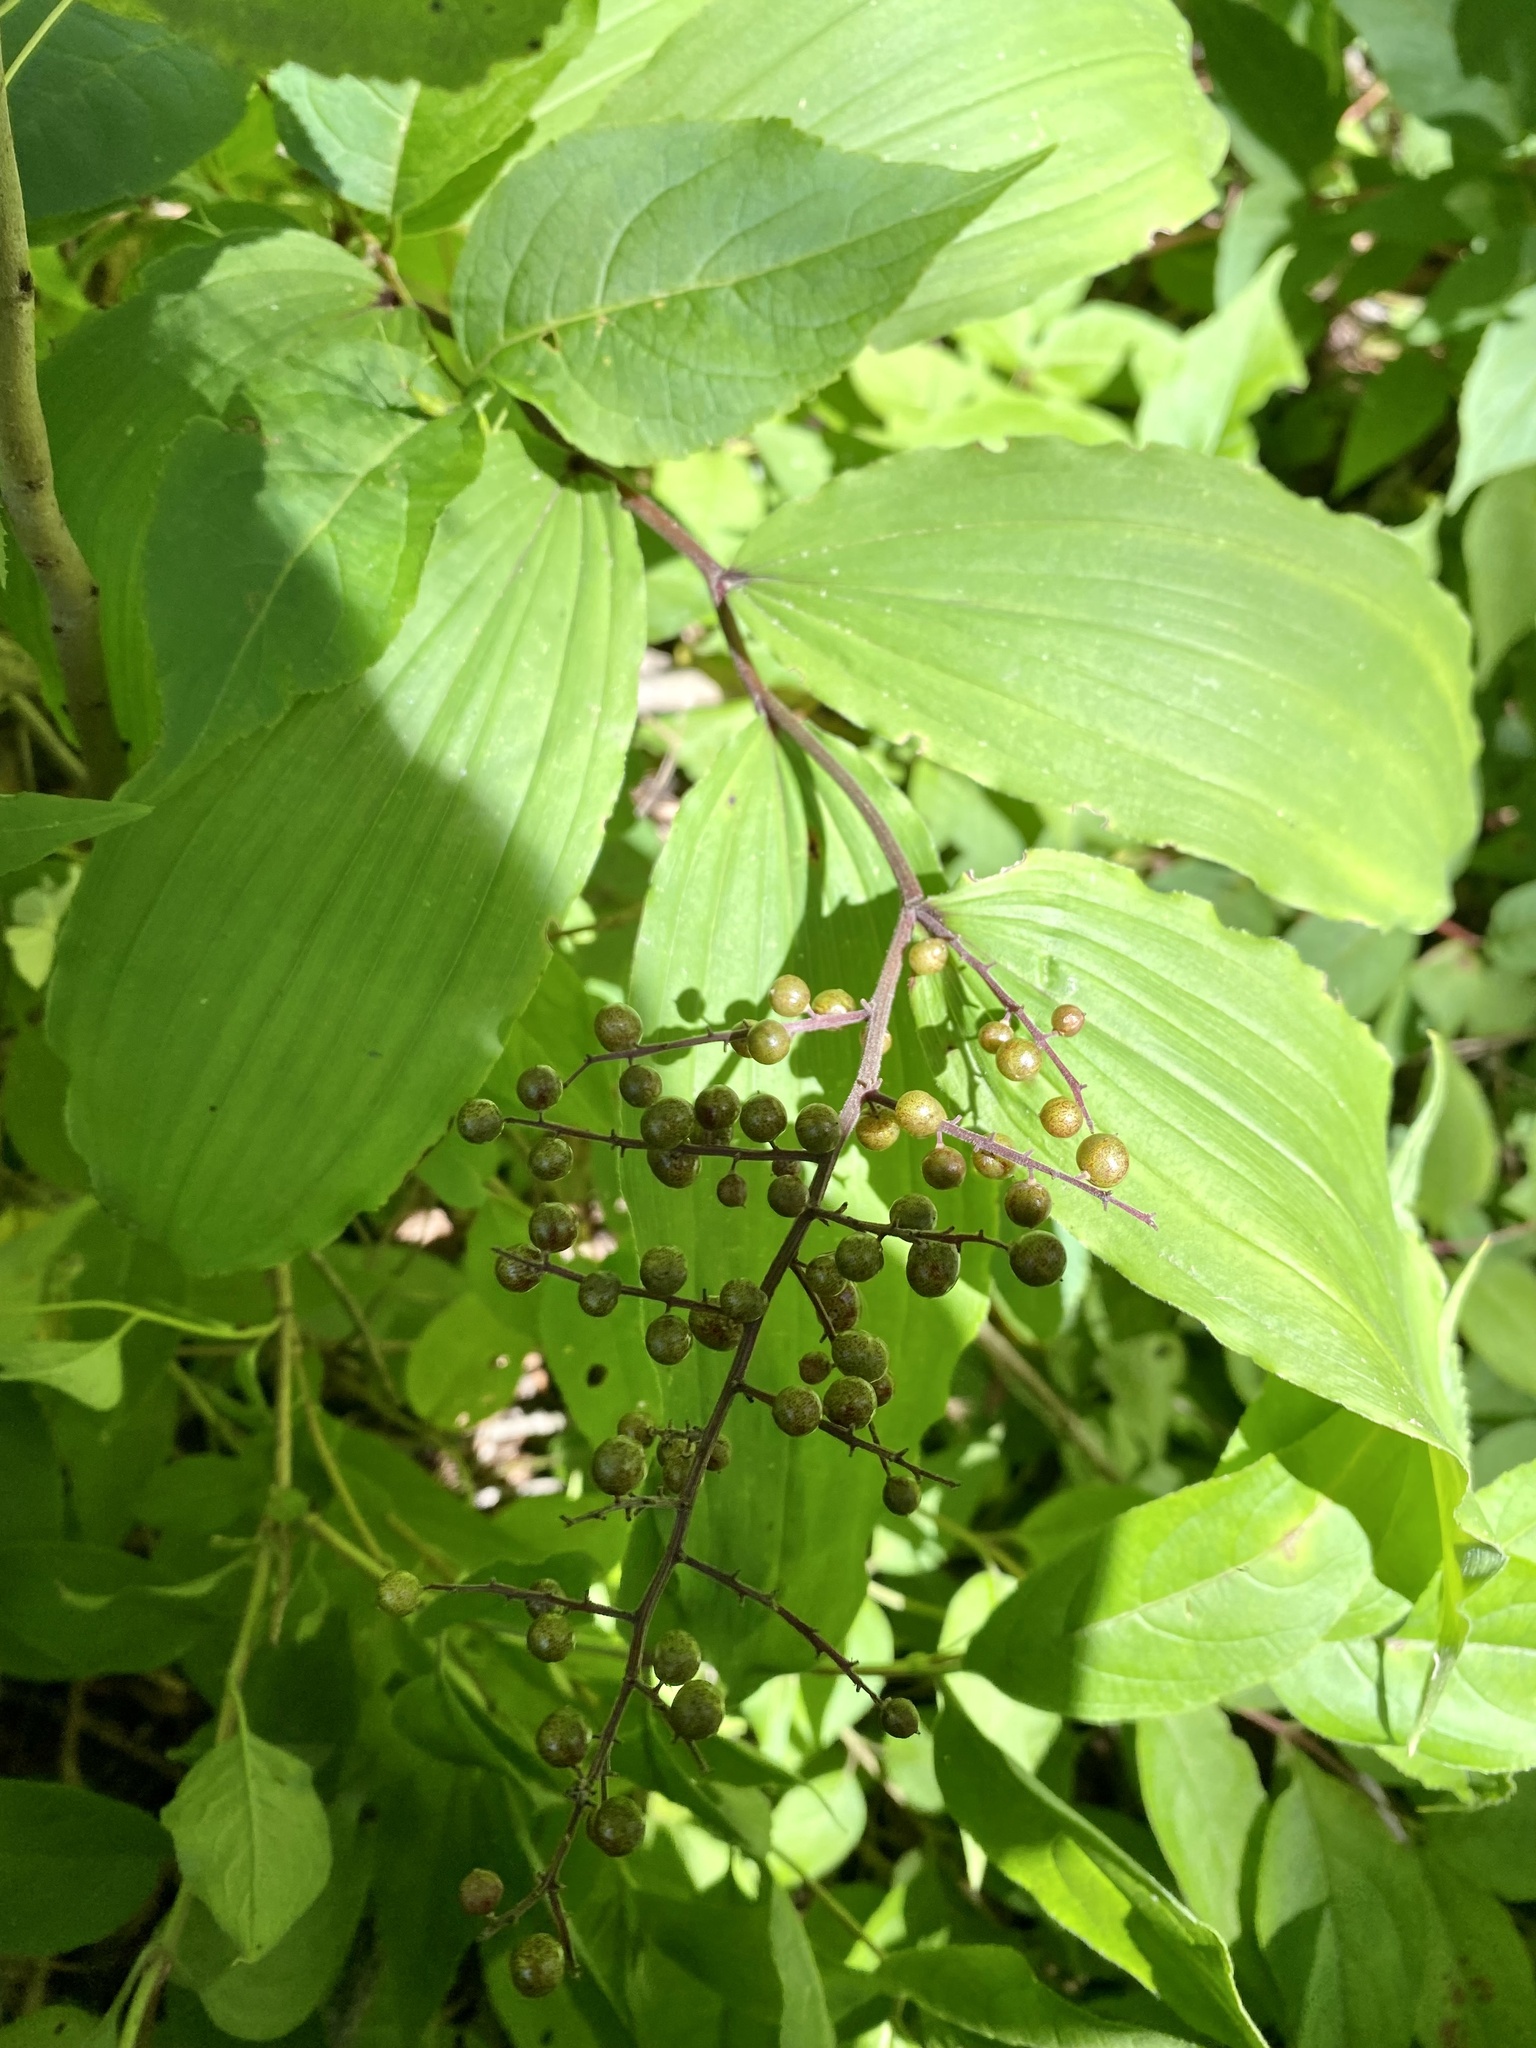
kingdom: Plantae
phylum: Tracheophyta
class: Liliopsida
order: Asparagales
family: Asparagaceae
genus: Maianthemum
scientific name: Maianthemum racemosum
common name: False spikenard
